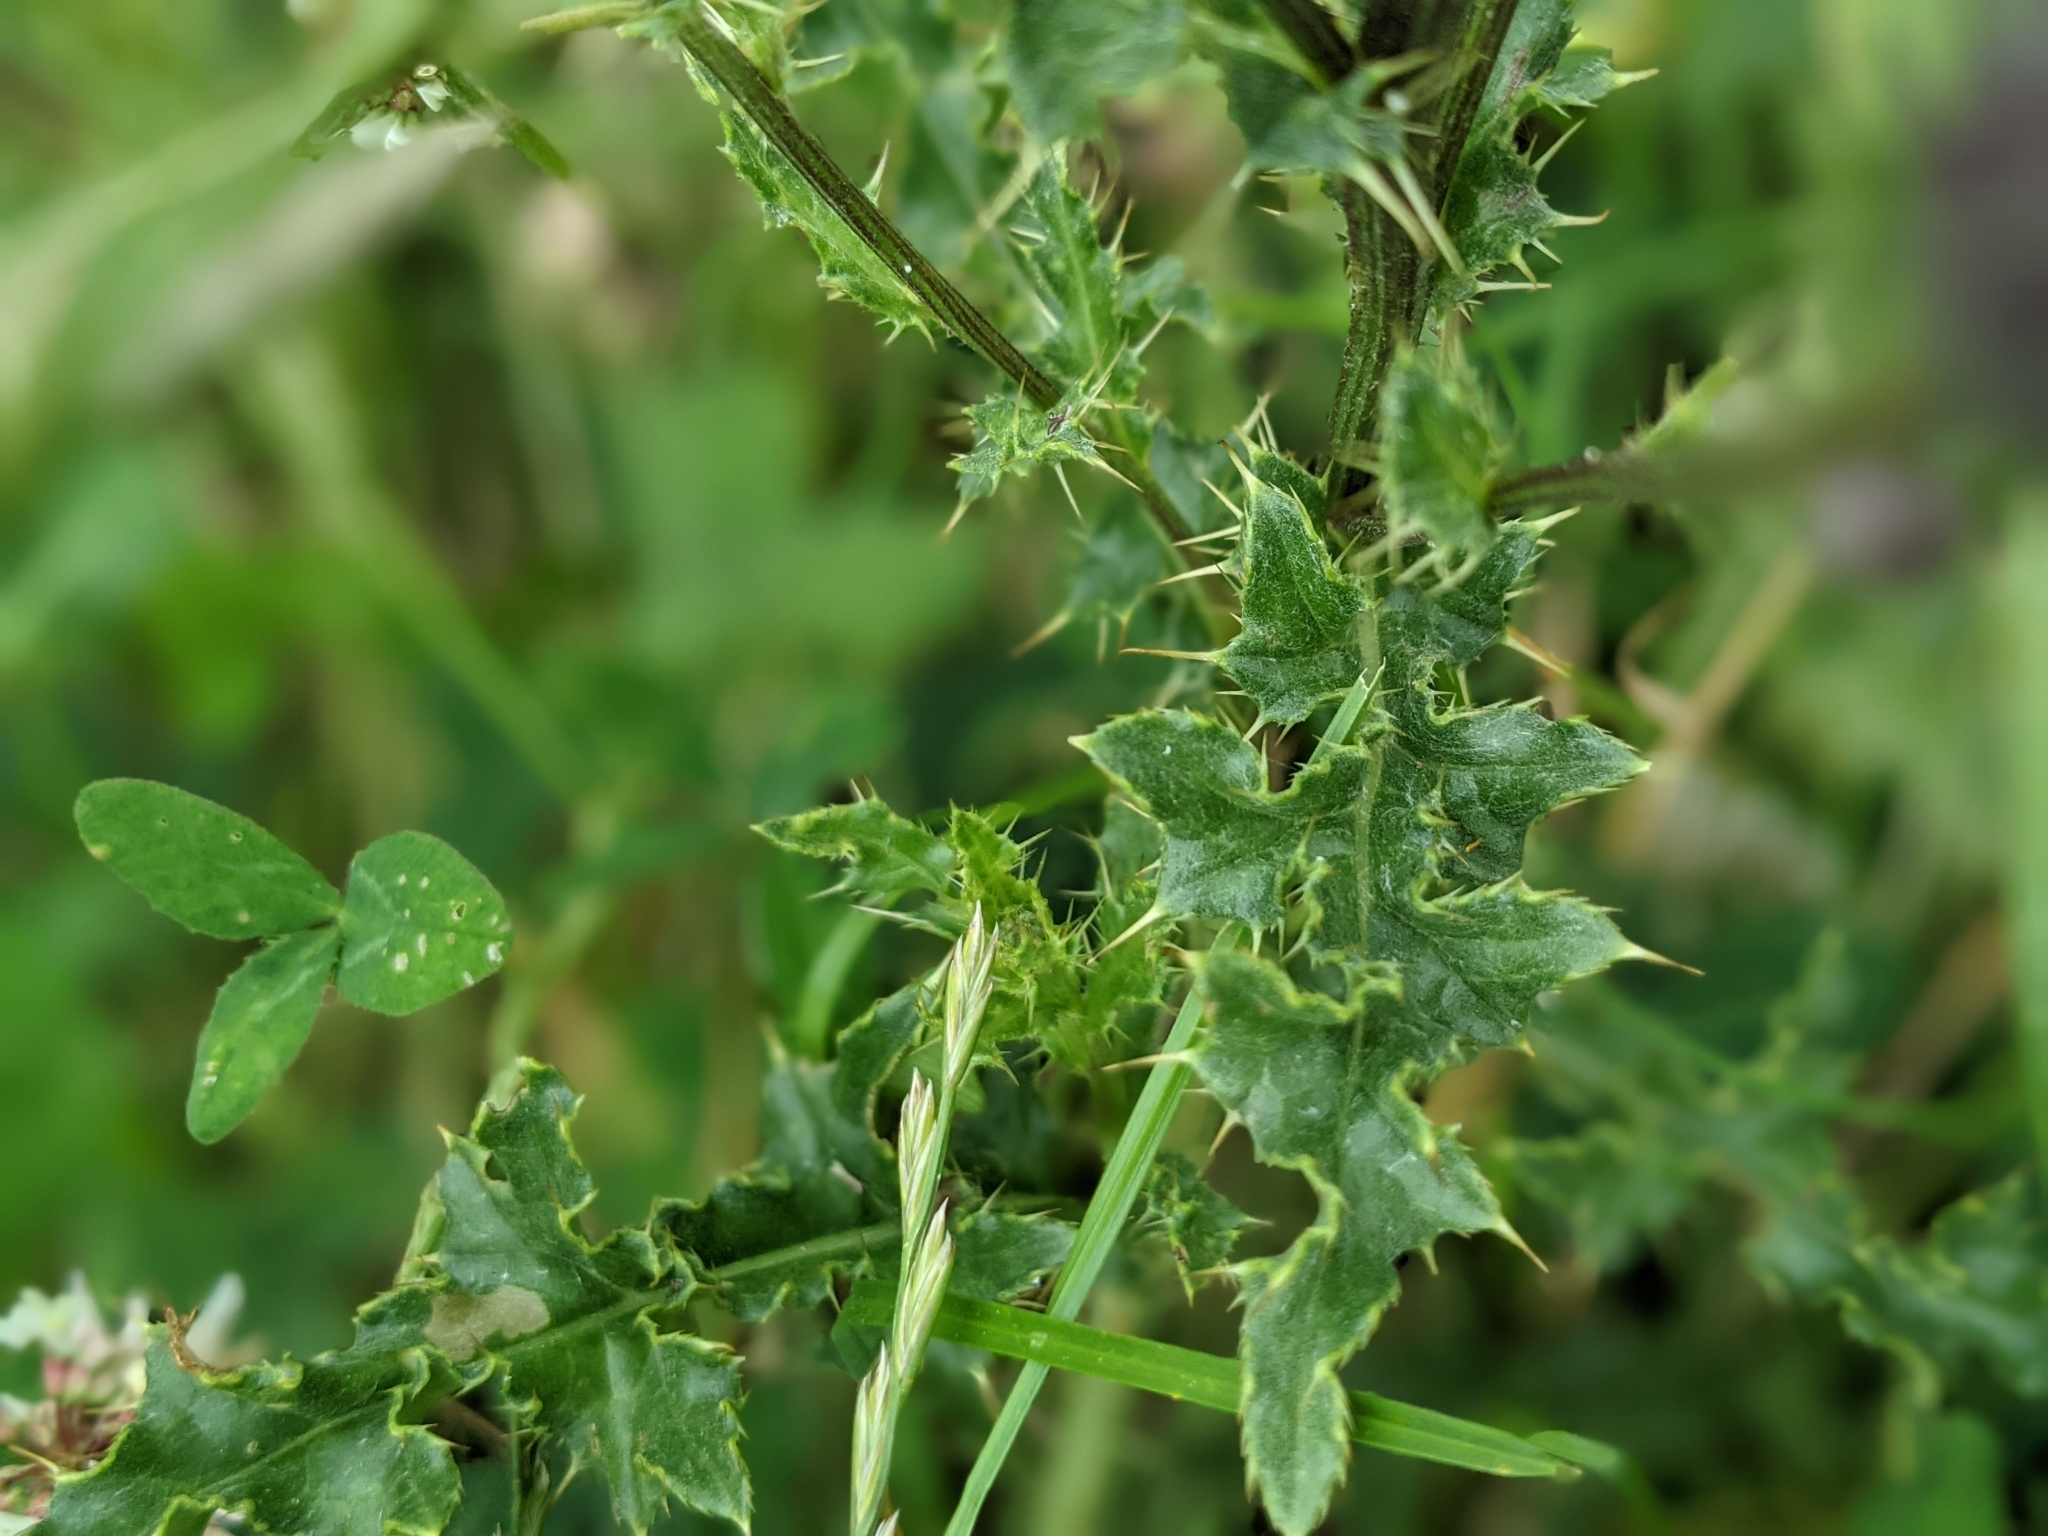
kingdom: Plantae
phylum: Tracheophyta
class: Magnoliopsida
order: Asterales
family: Asteraceae
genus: Cirsium
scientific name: Cirsium arvense
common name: Creeping thistle
